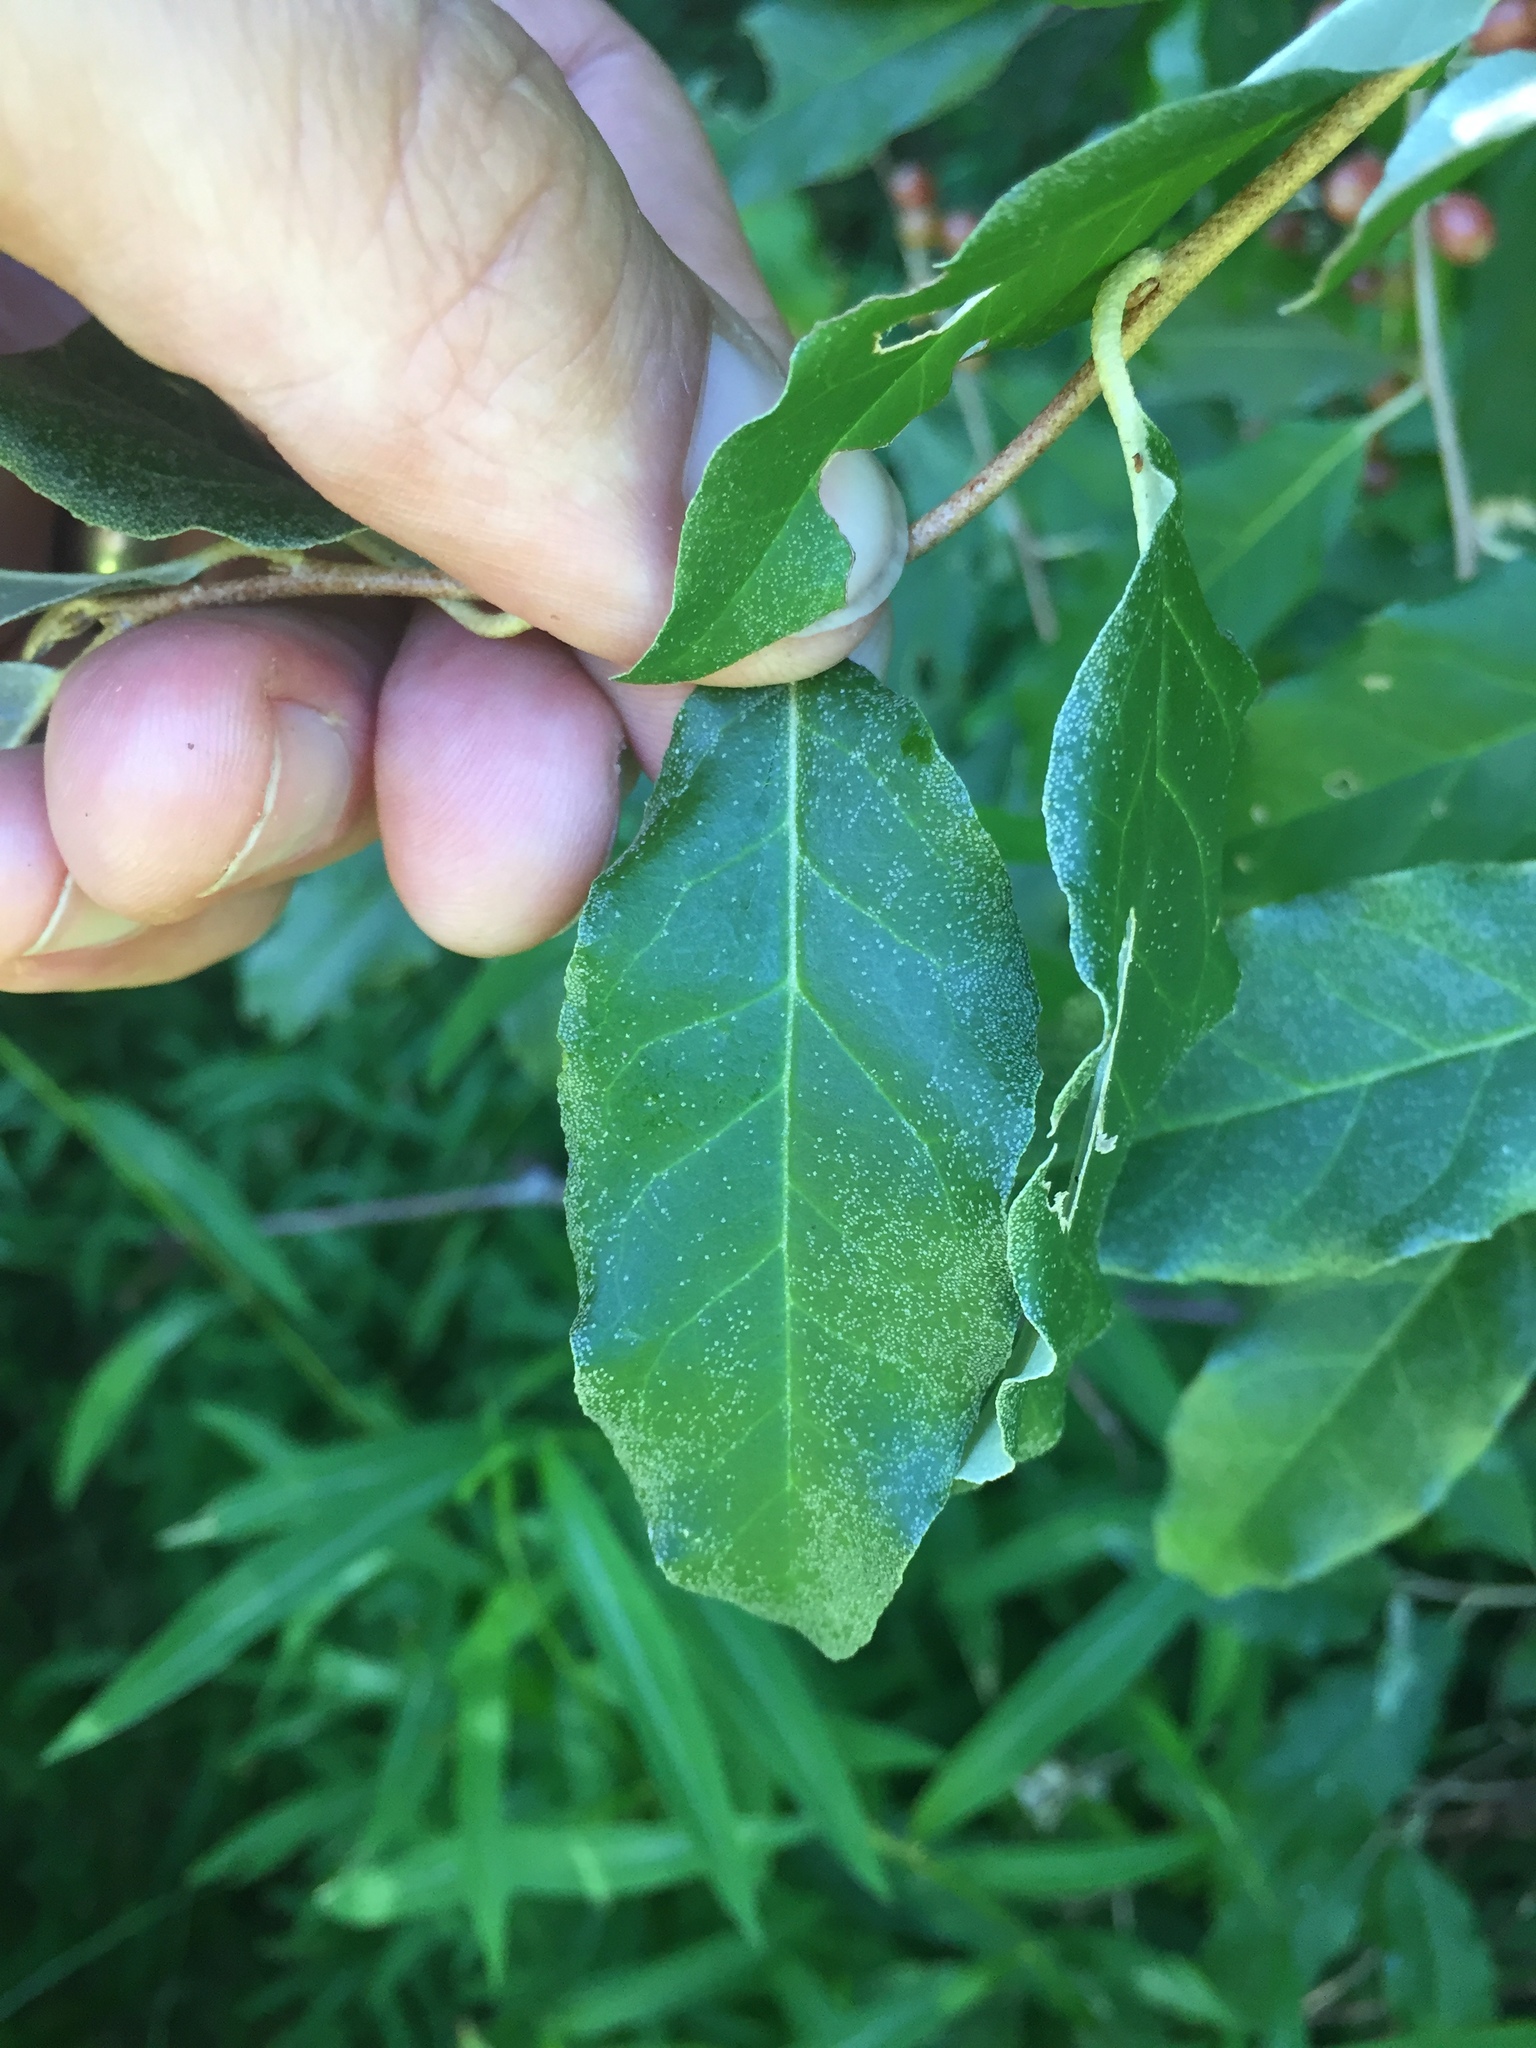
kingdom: Plantae
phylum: Tracheophyta
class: Magnoliopsida
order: Rosales
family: Elaeagnaceae
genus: Elaeagnus
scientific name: Elaeagnus umbellata
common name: Autumn olive
